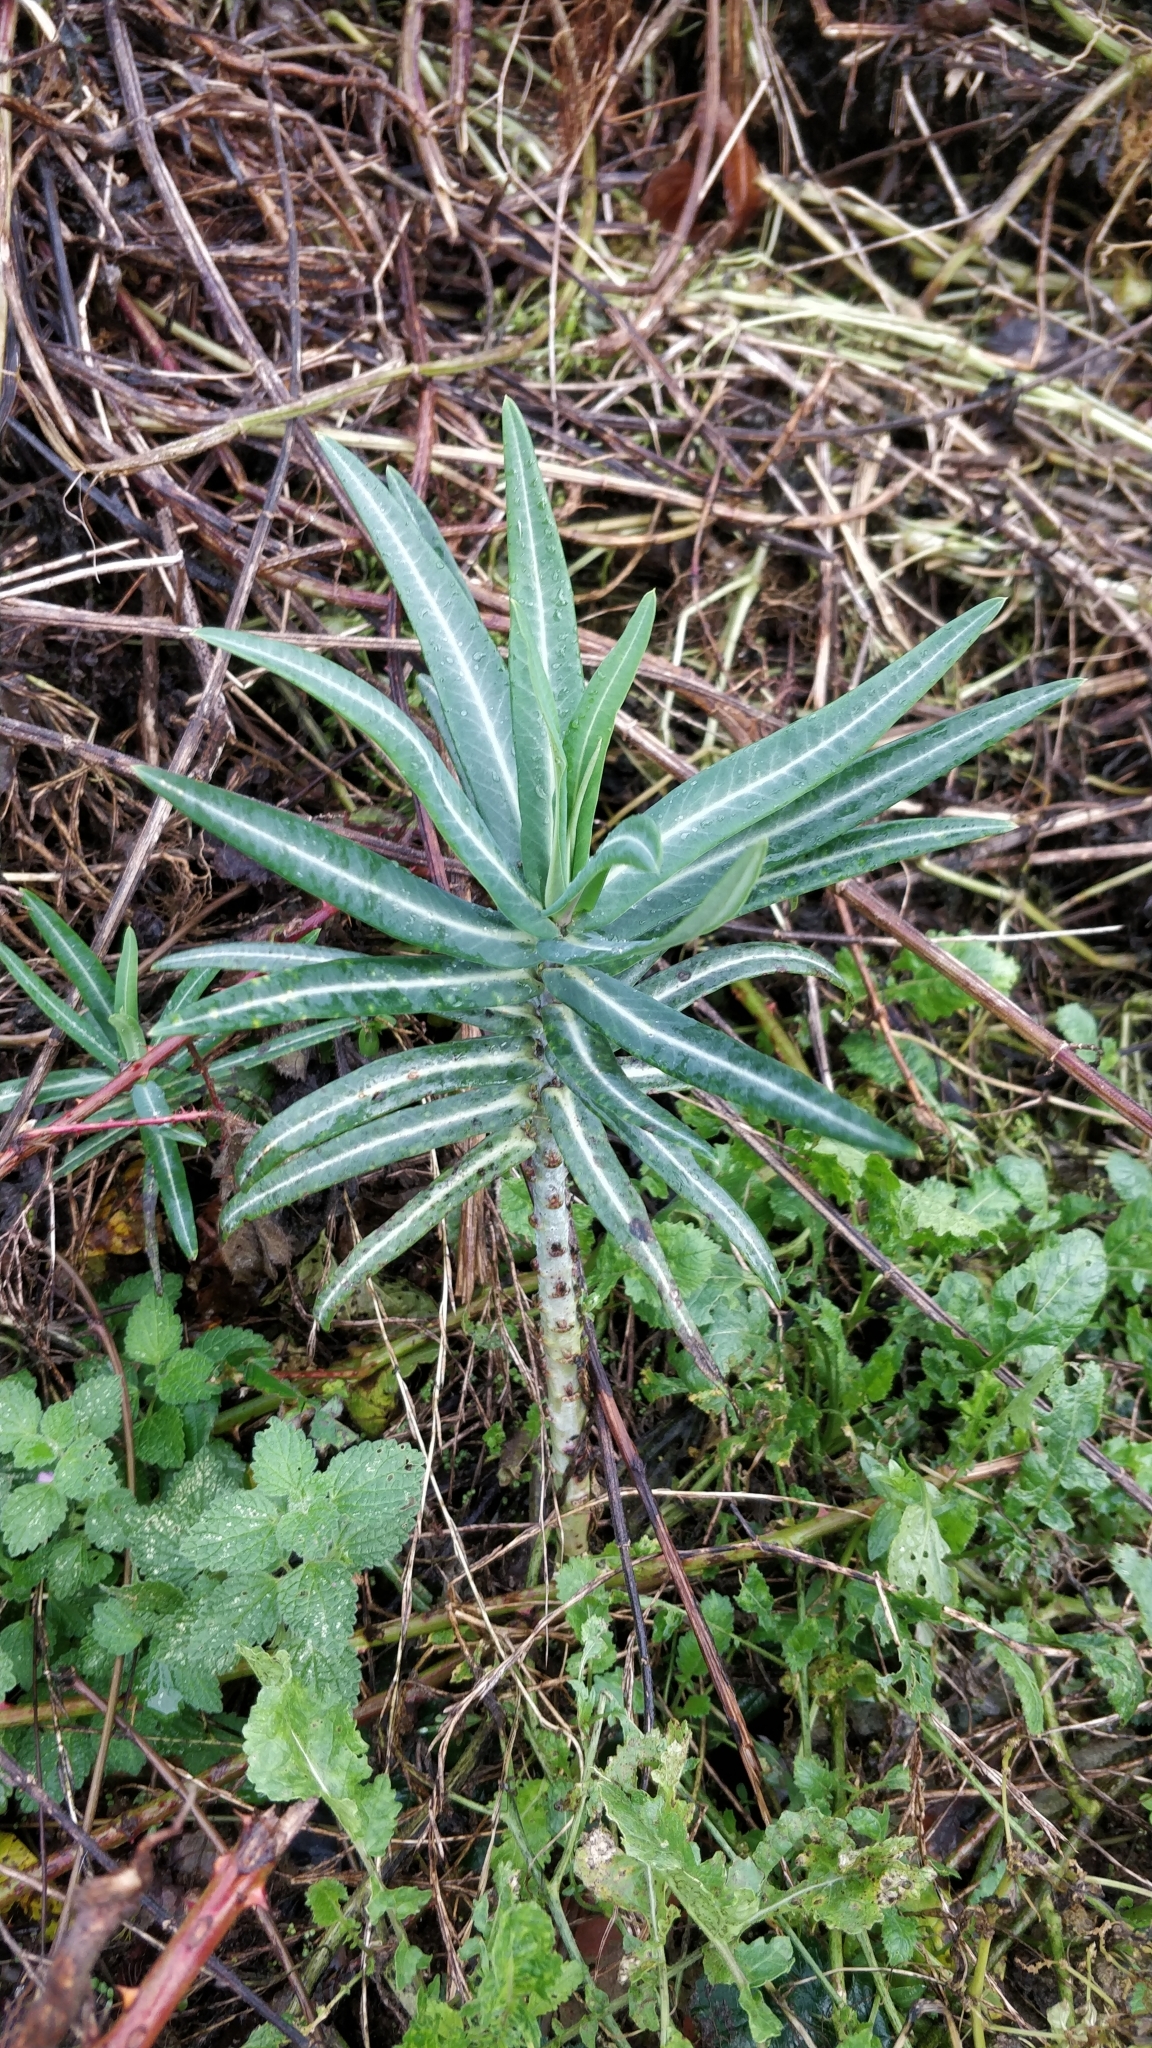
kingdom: Plantae
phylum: Tracheophyta
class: Magnoliopsida
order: Malpighiales
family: Euphorbiaceae
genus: Euphorbia
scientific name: Euphorbia lathyris
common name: Caper spurge
